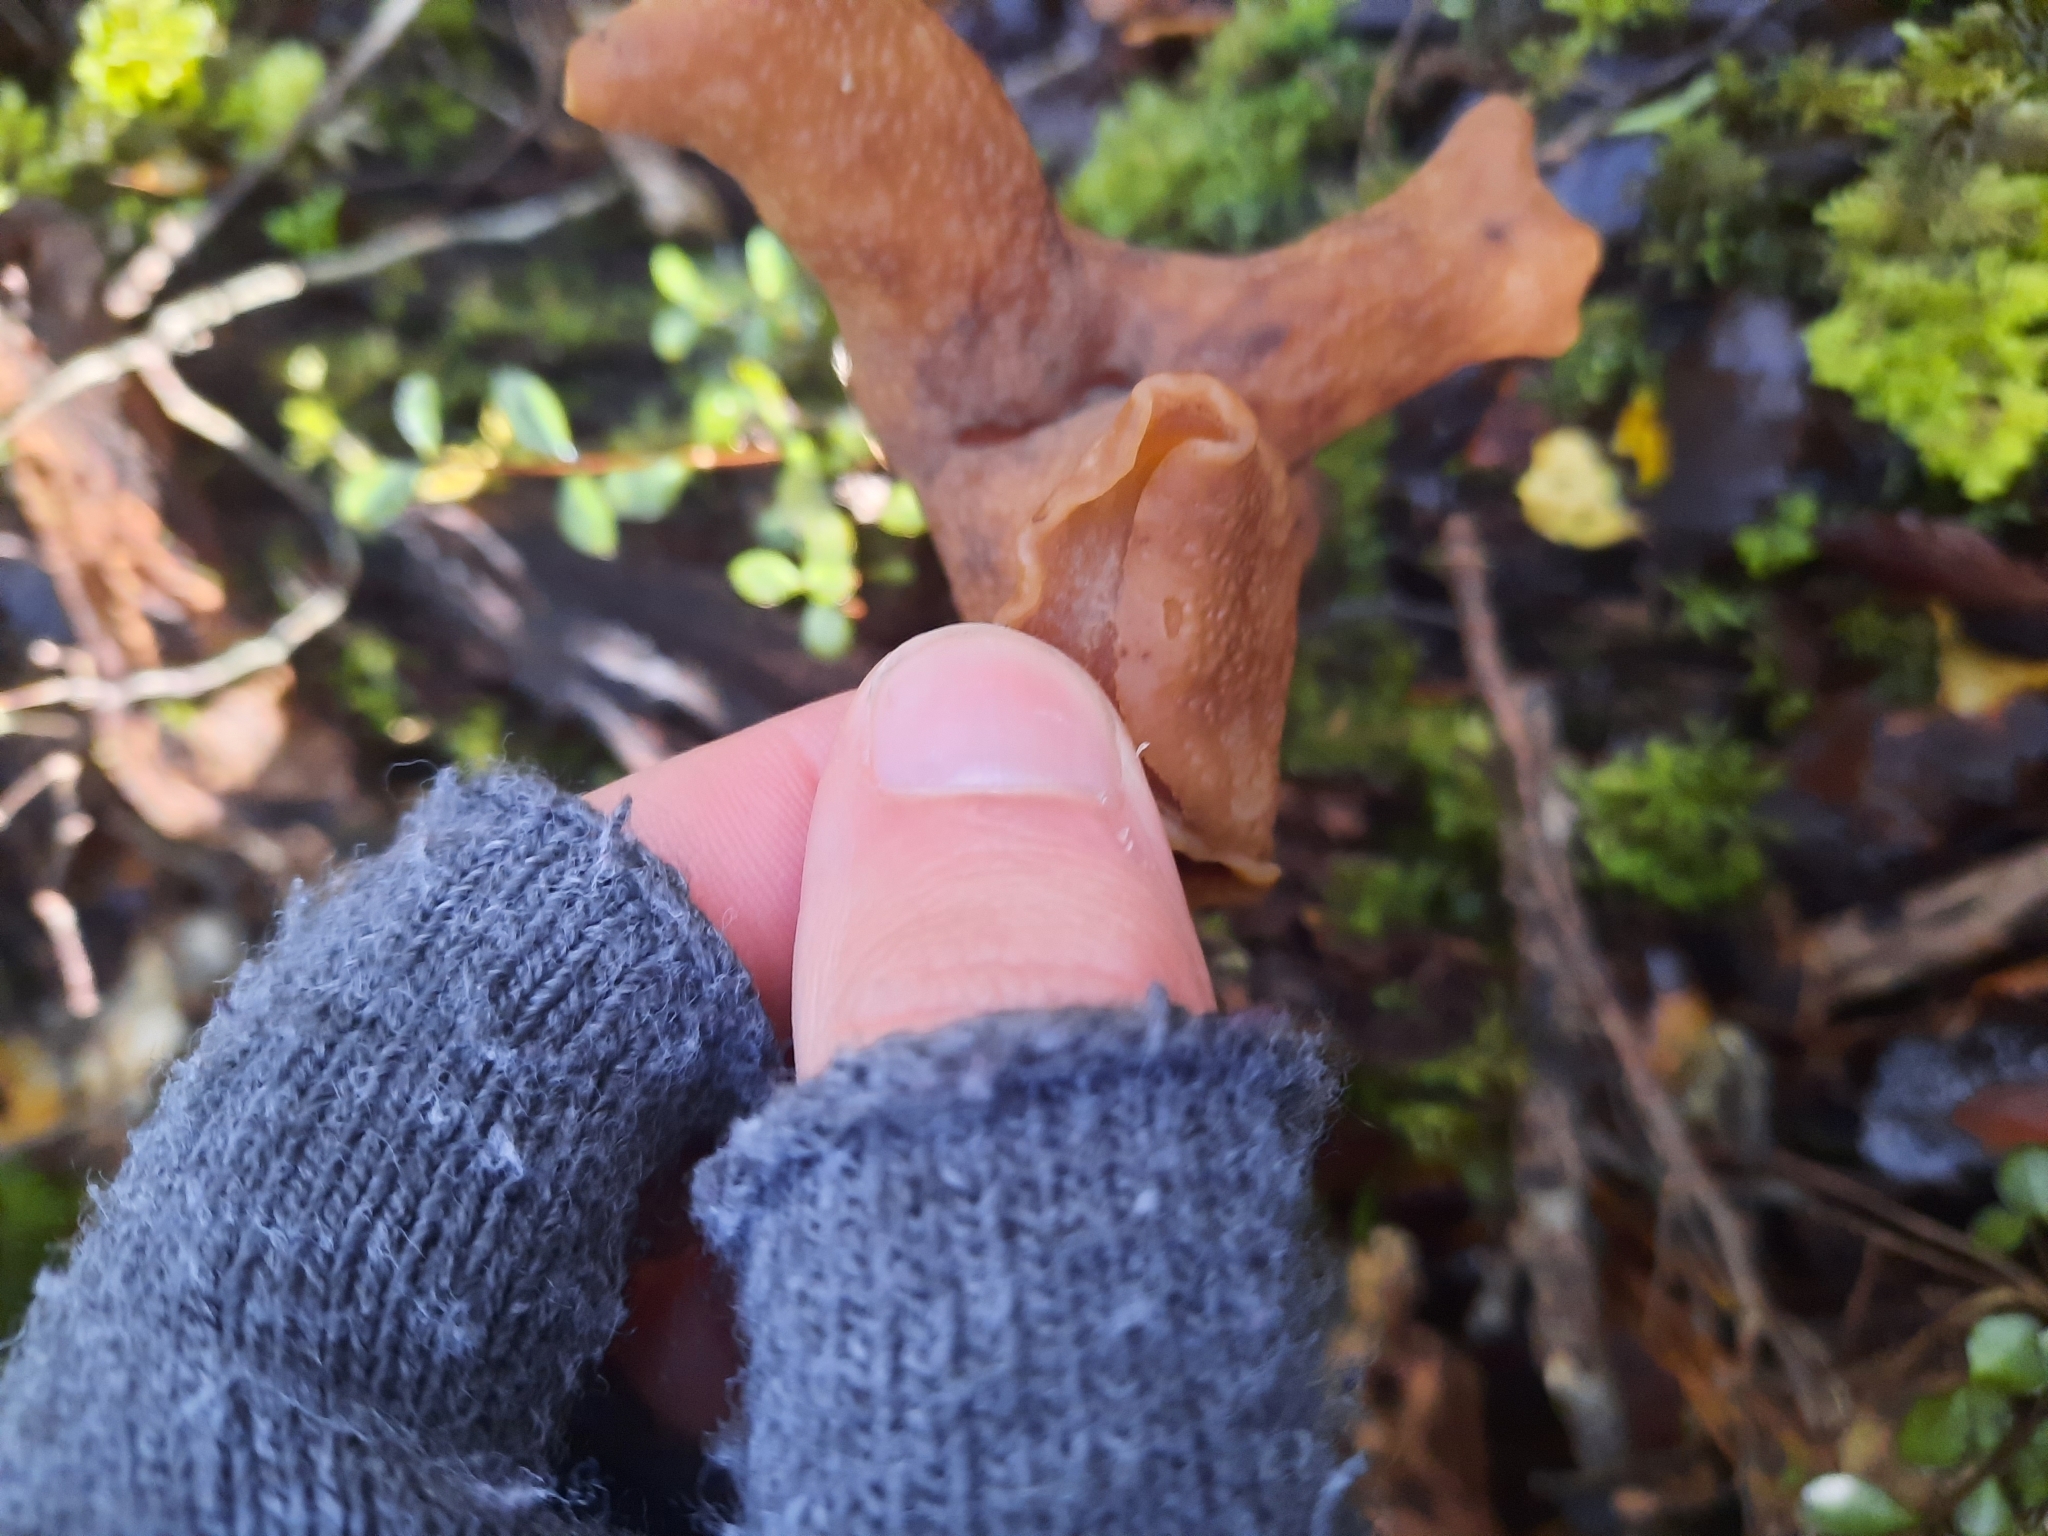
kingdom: Fungi
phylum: Ascomycota
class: Pezizomycetes
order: Pezizales
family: Discinaceae
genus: Gyromitra
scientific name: Gyromitra infula
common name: Pouched false morel
